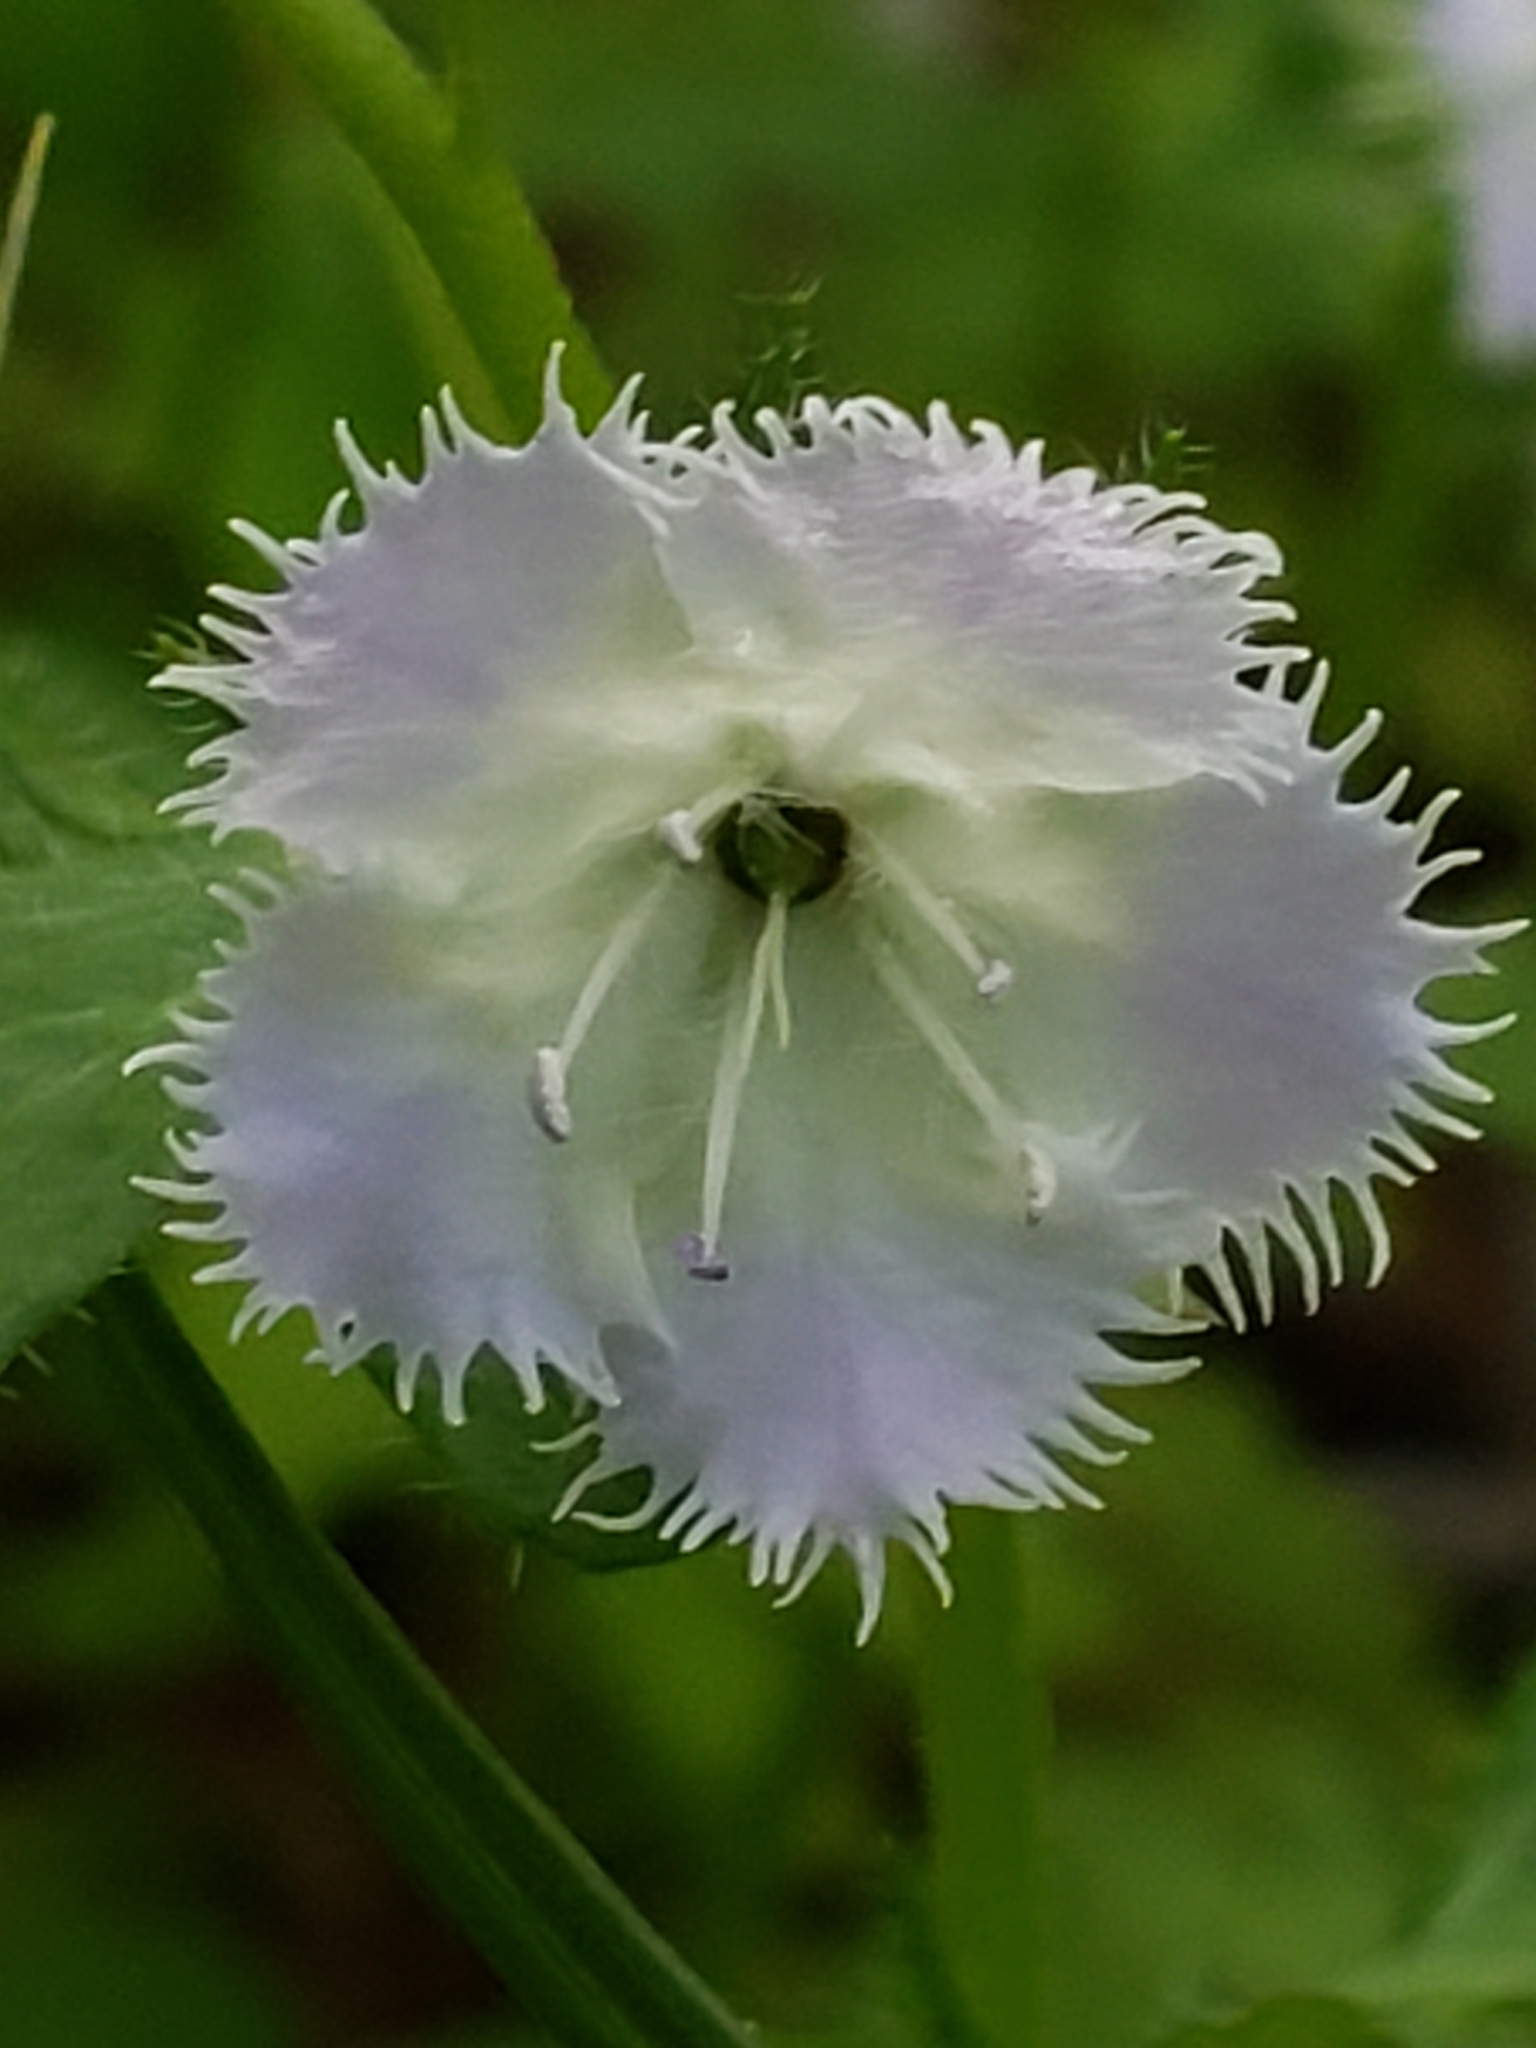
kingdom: Plantae
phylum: Tracheophyta
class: Magnoliopsida
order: Boraginales
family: Hydrophyllaceae
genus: Phacelia
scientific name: Phacelia purshii
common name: Miami-mist
